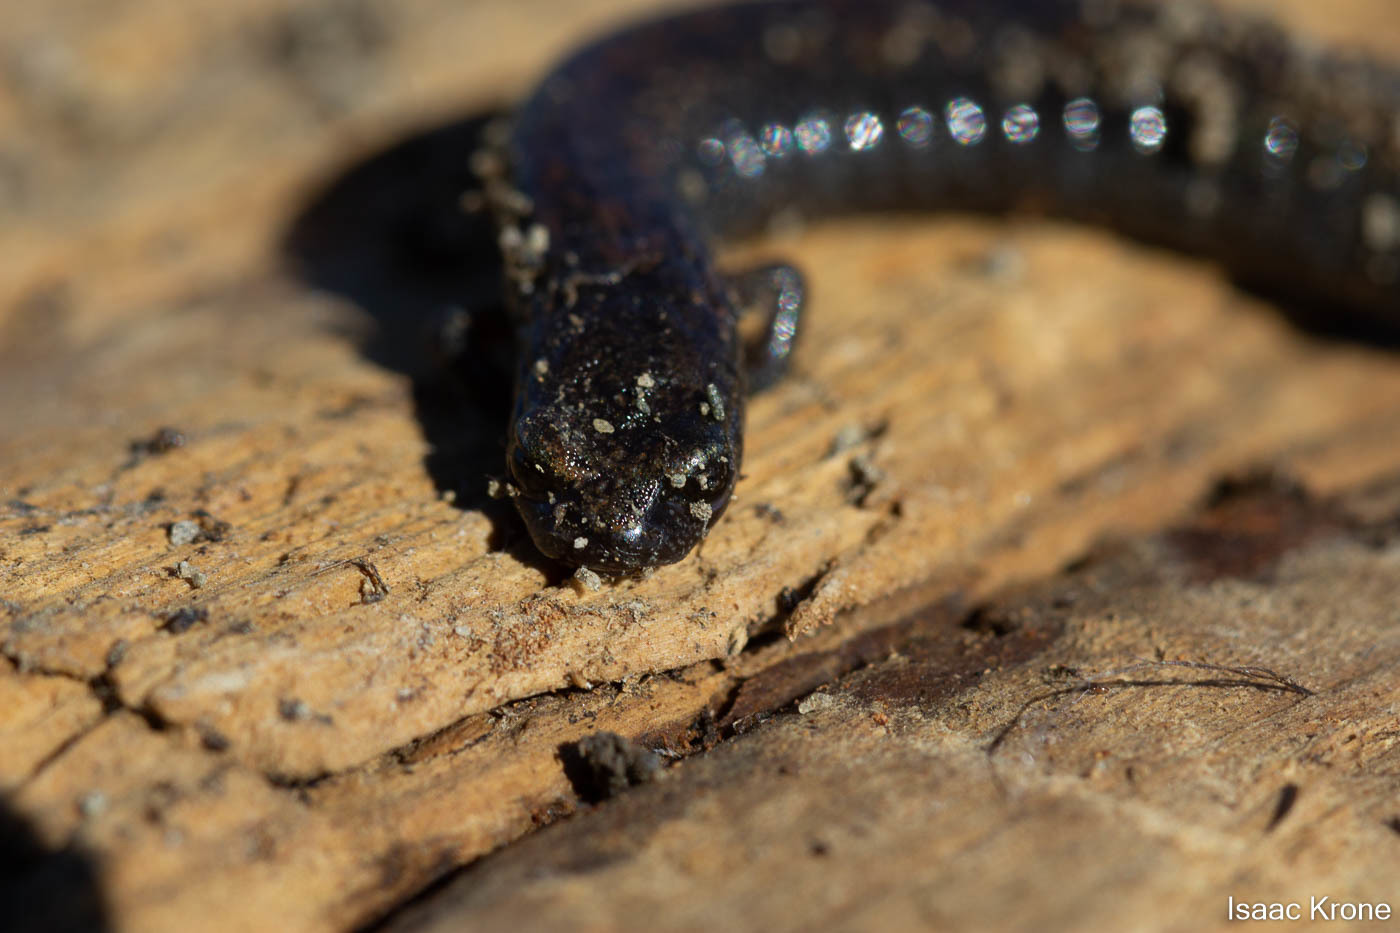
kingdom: Animalia
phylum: Chordata
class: Amphibia
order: Caudata
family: Plethodontidae
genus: Batrachoseps
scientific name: Batrachoseps attenuatus
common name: California slender salamander
